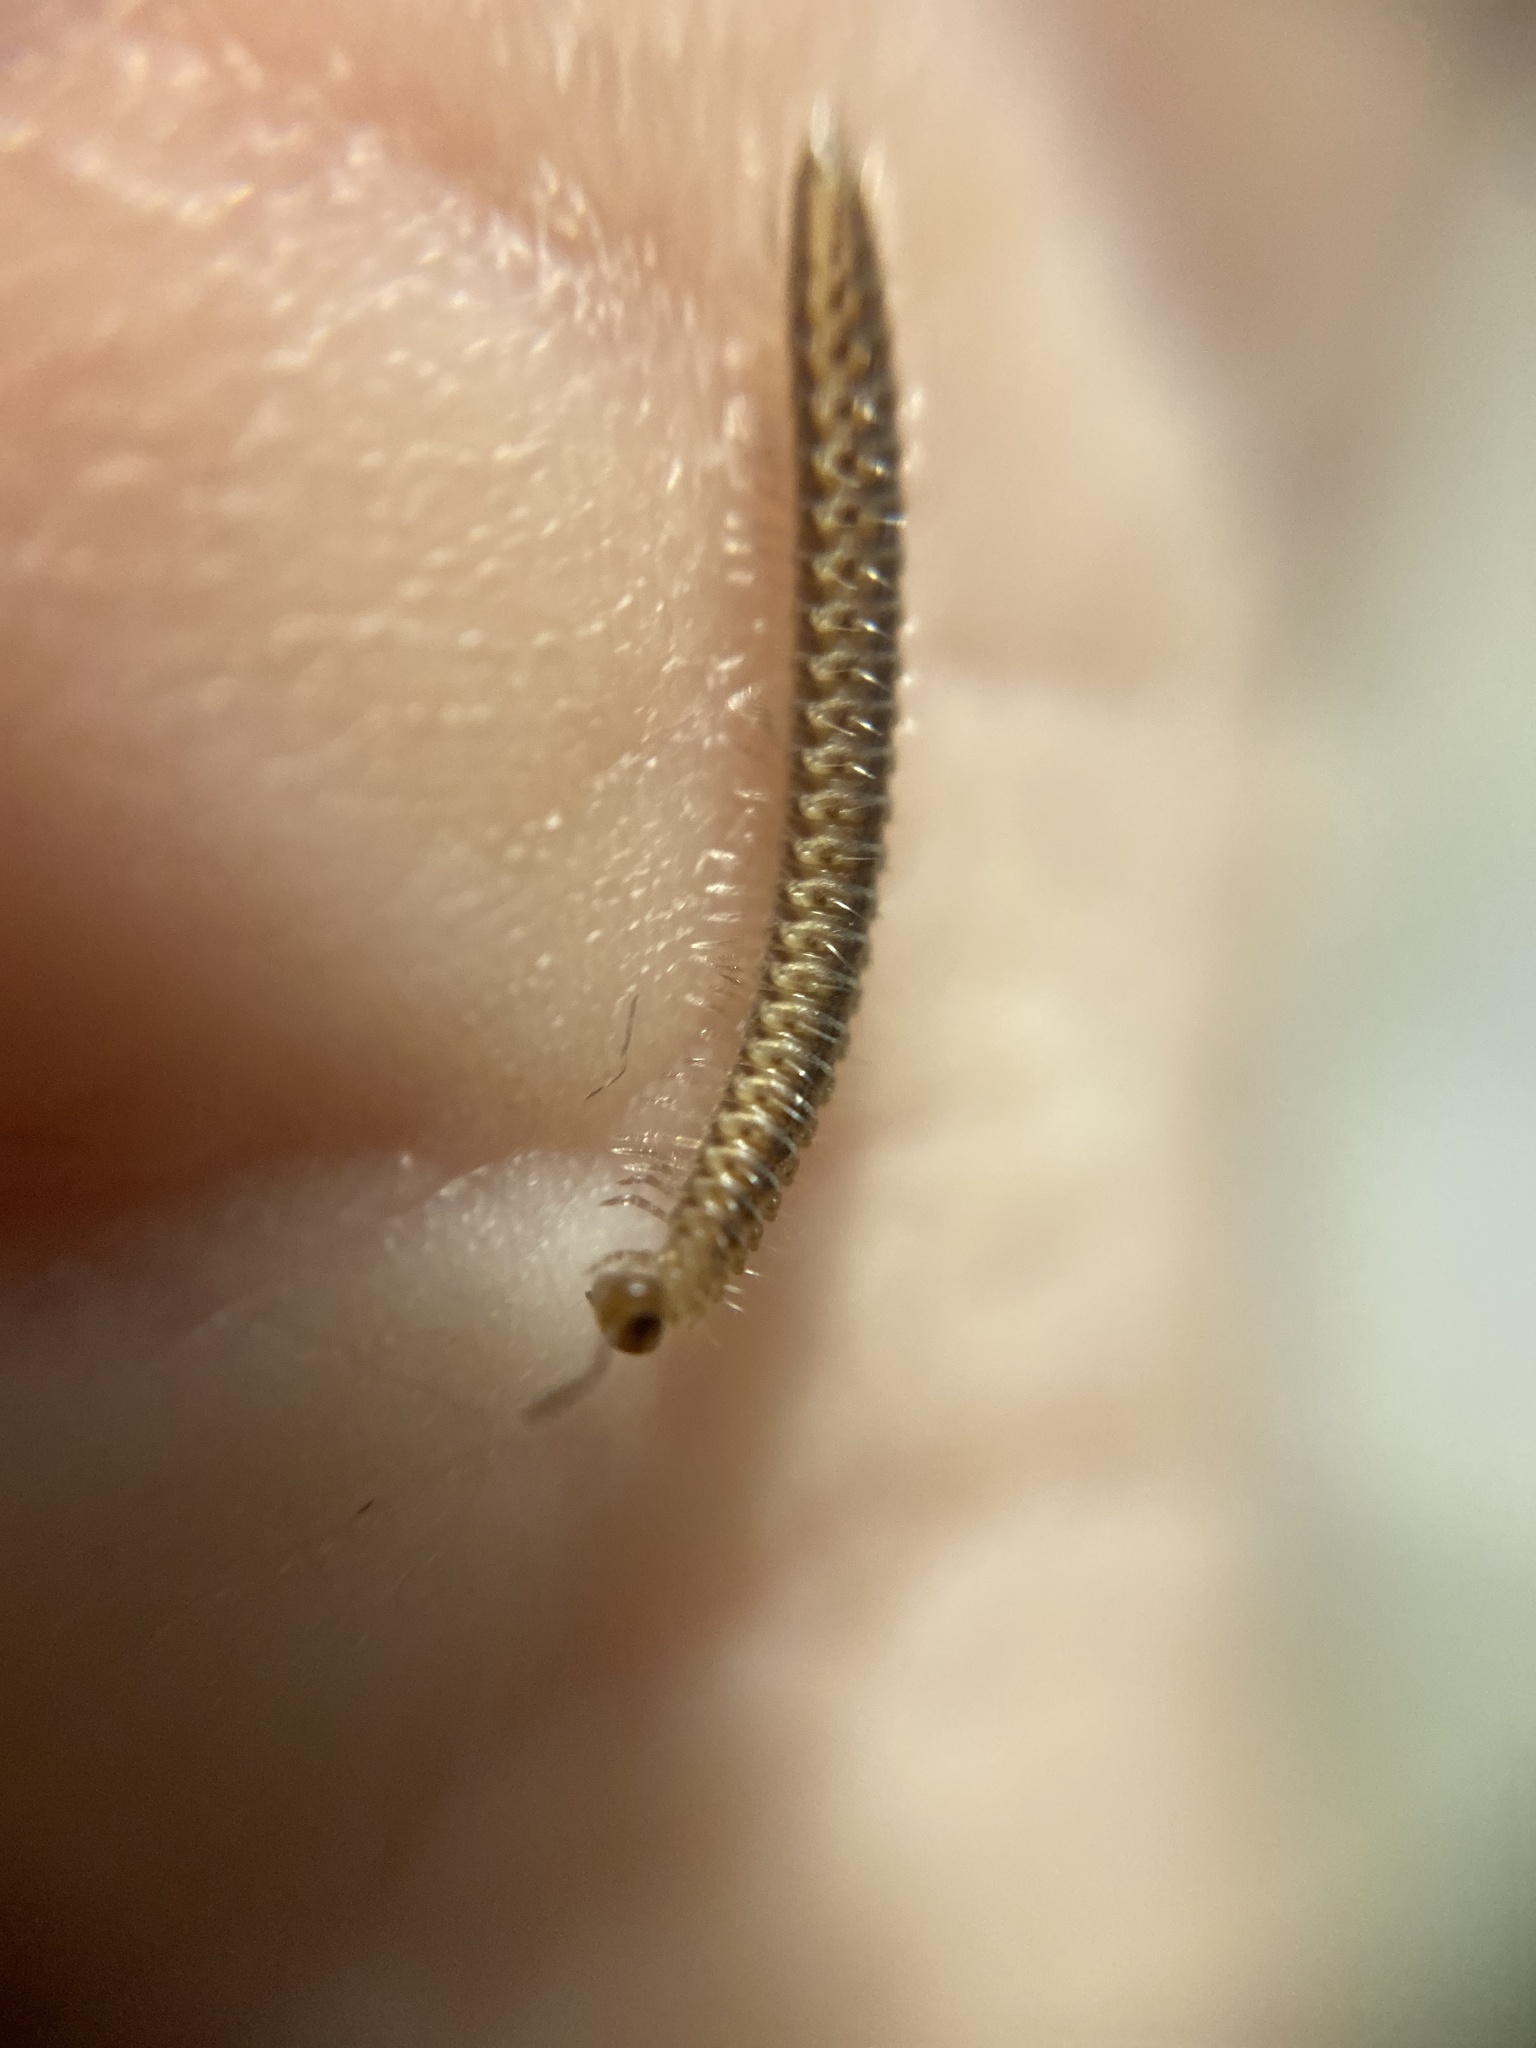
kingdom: Animalia
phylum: Arthropoda
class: Diplopoda
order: Chordeumatida
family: Craspedosomatidae
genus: Craspedosoma
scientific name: Craspedosoma rawlinsii
